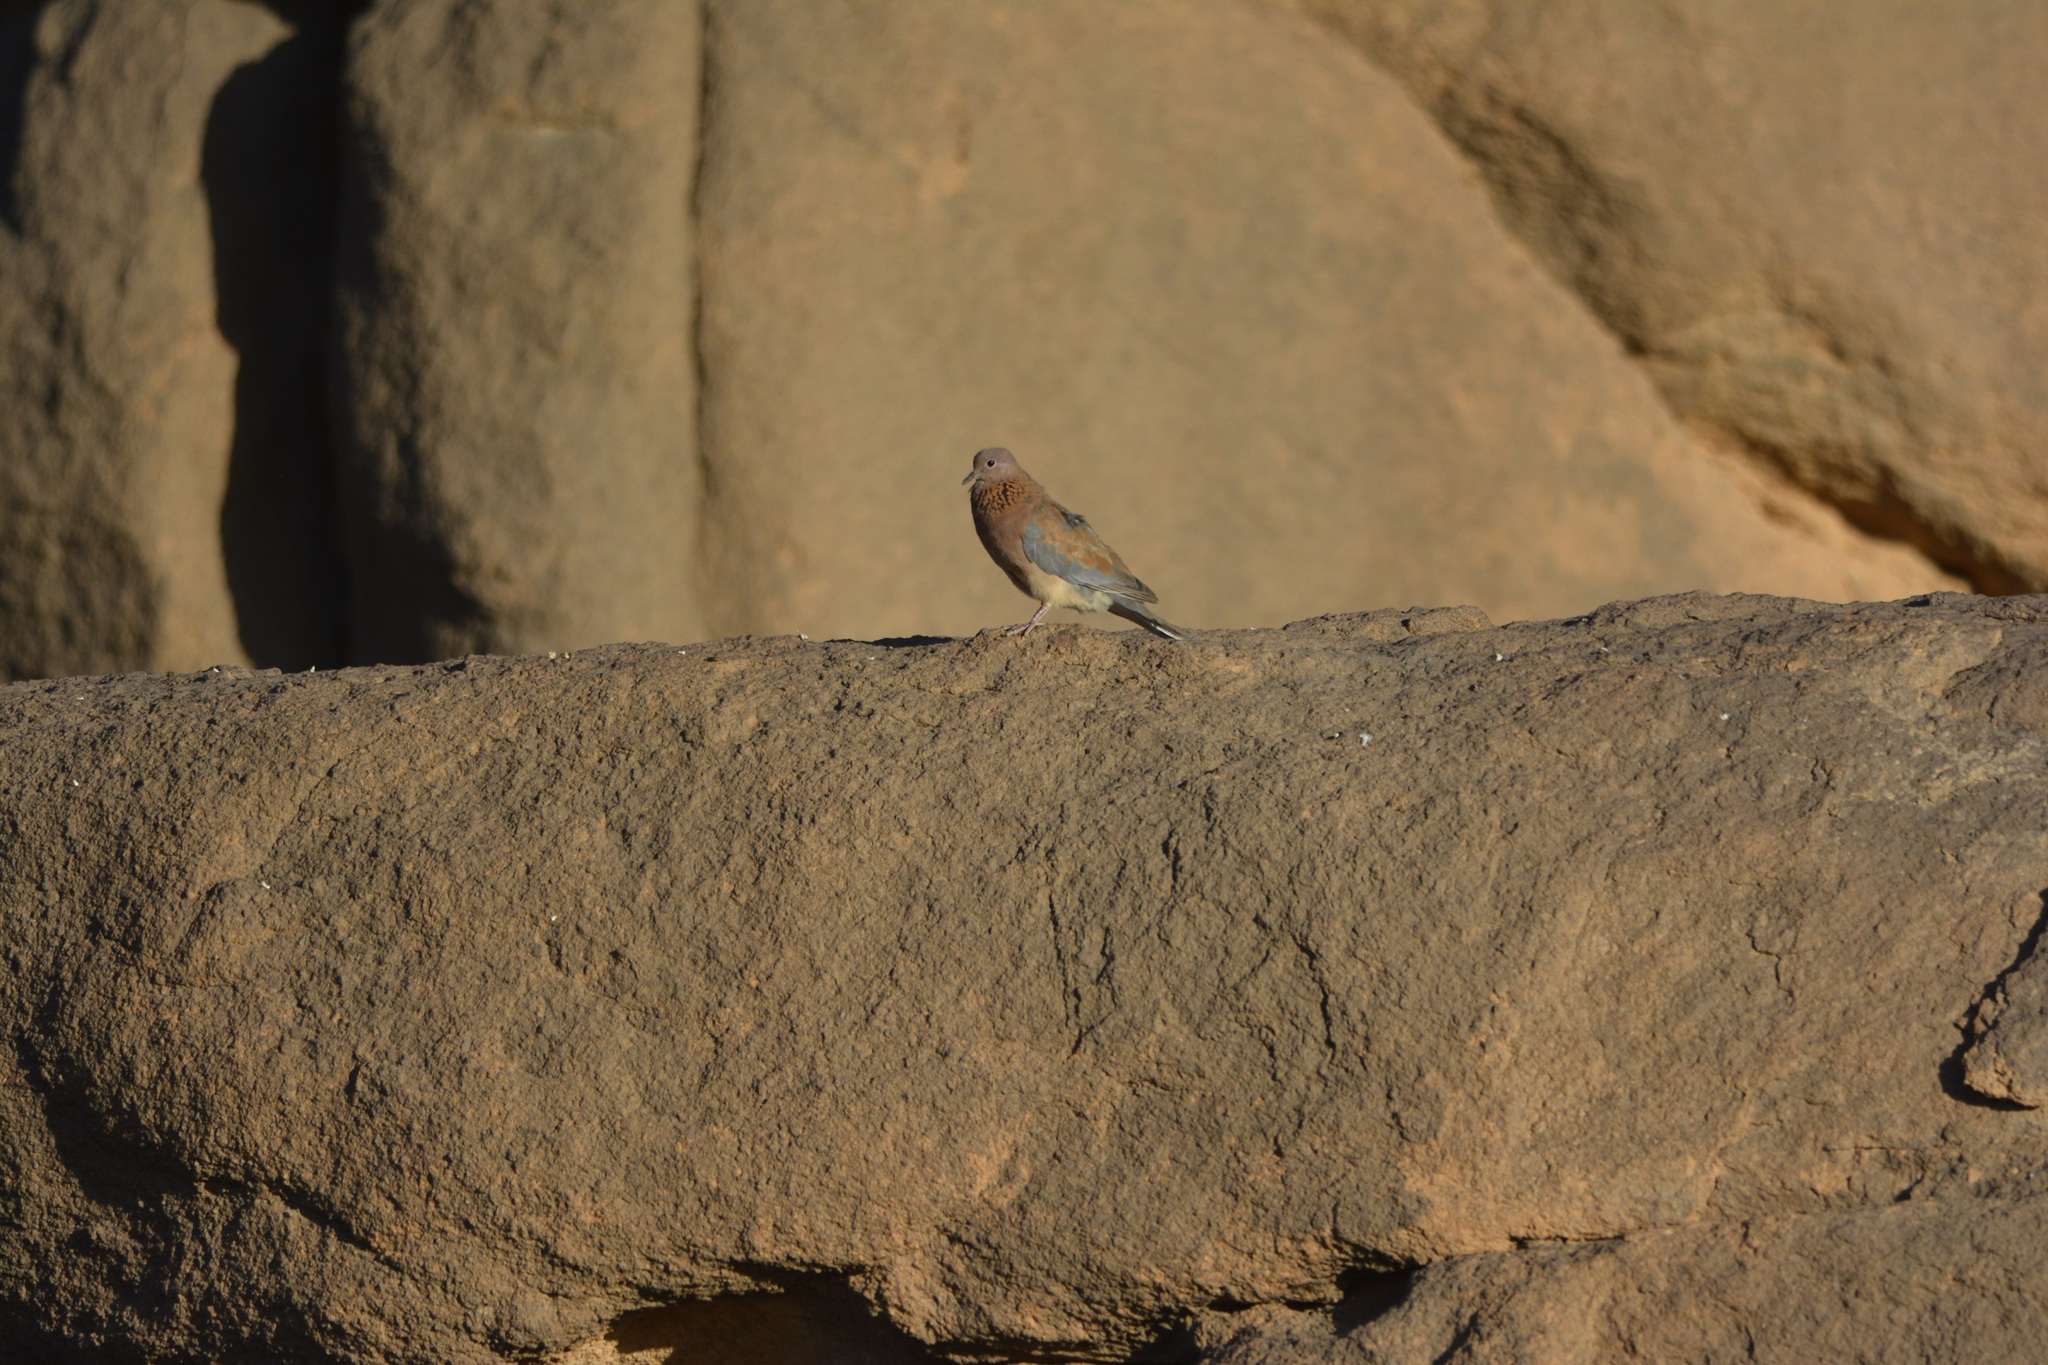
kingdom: Animalia
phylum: Chordata
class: Aves
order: Columbiformes
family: Columbidae
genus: Spilopelia
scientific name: Spilopelia senegalensis
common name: Laughing dove
